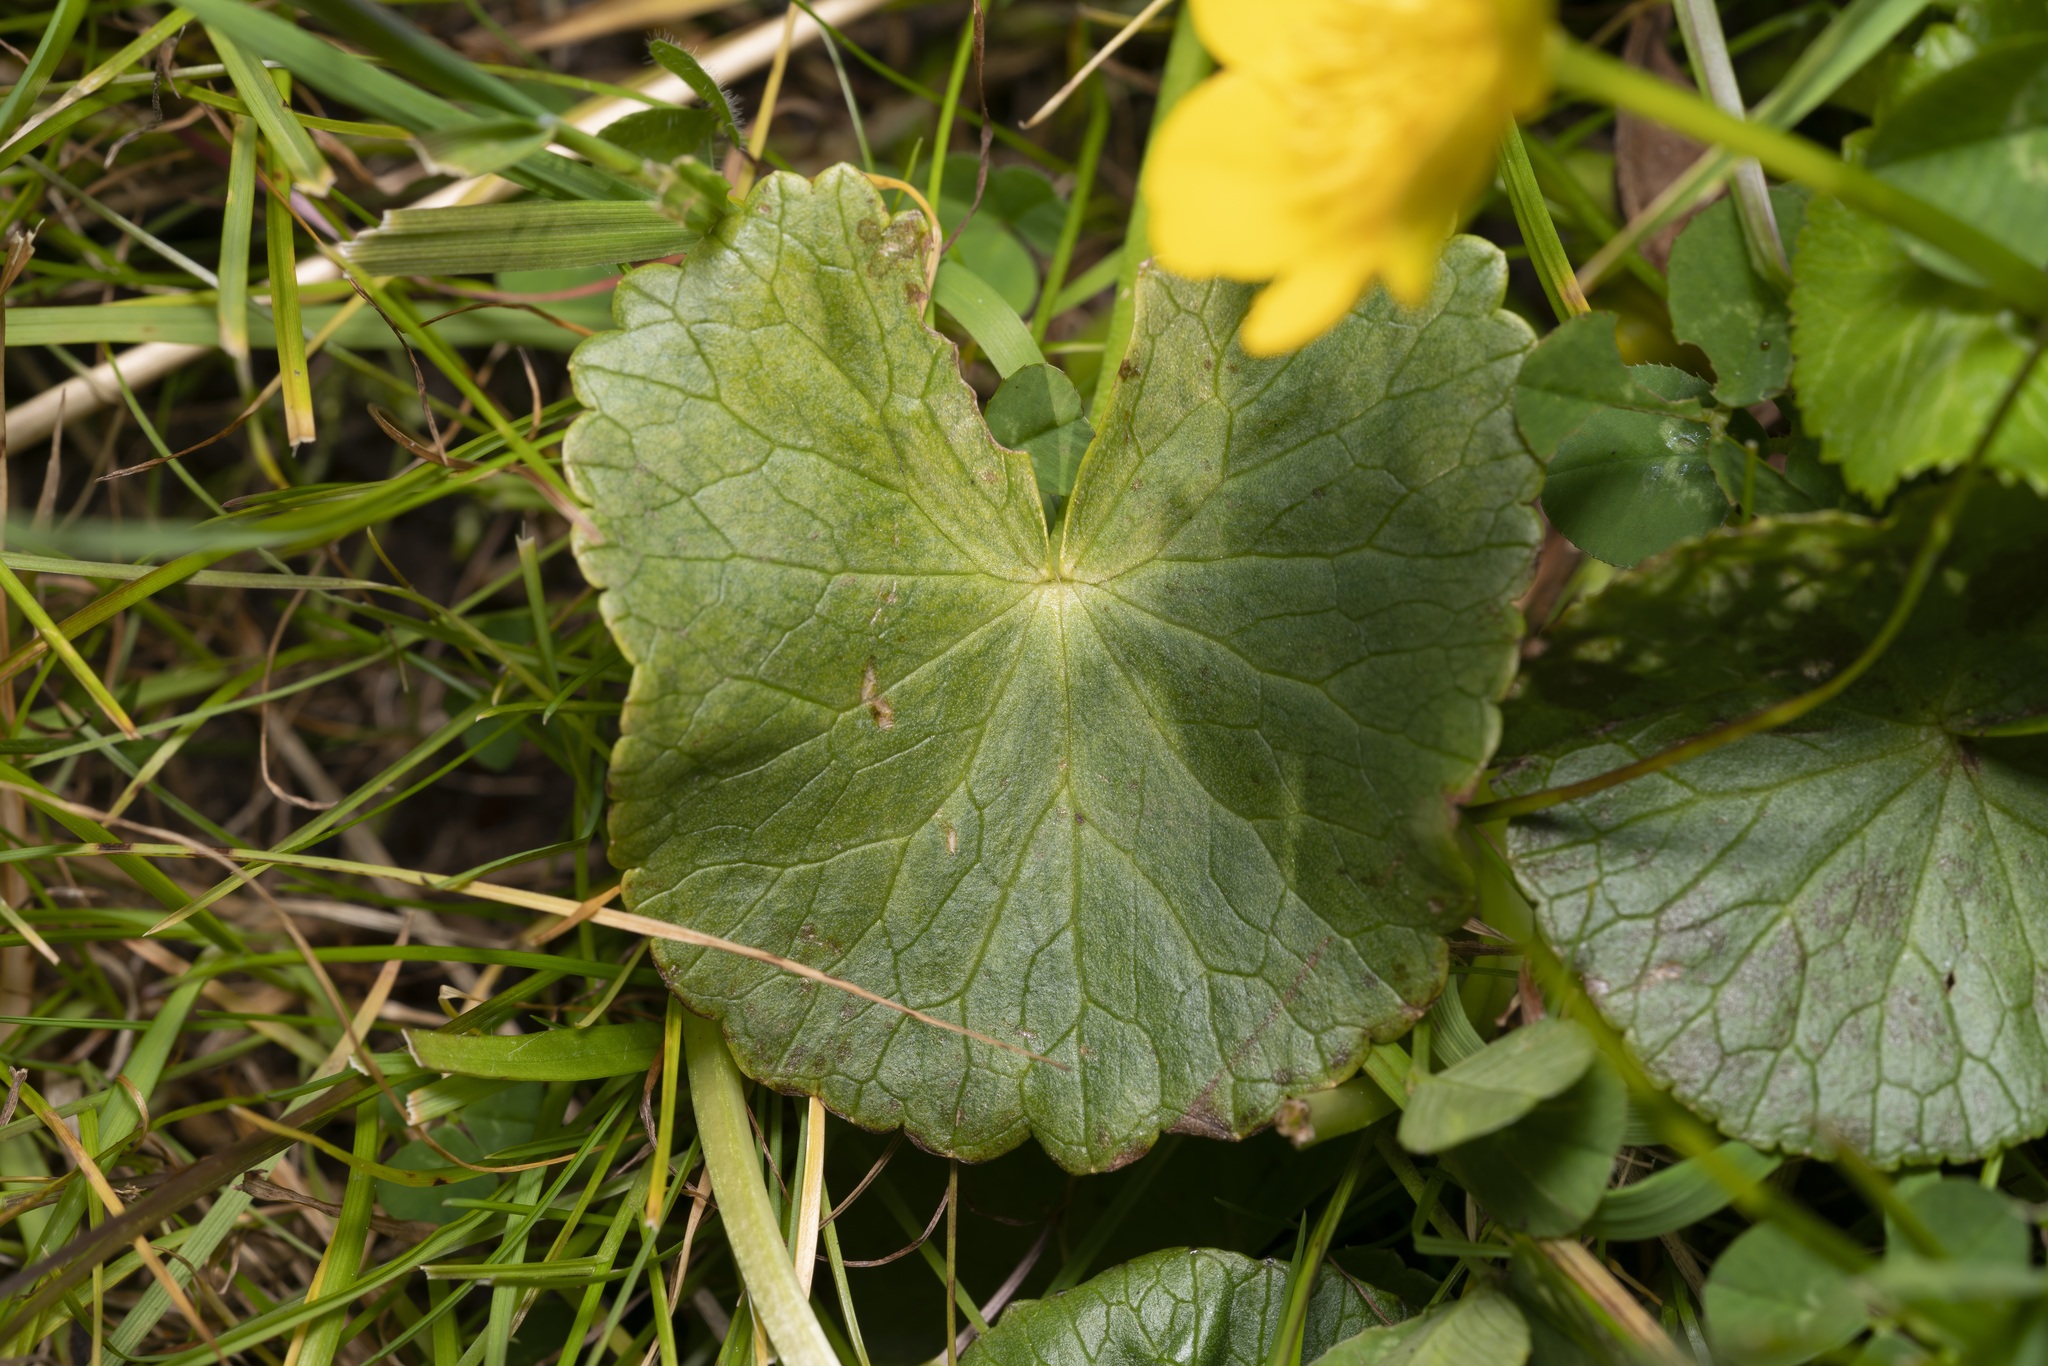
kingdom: Plantae
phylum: Tracheophyta
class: Magnoliopsida
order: Ranunculales
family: Ranunculaceae
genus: Caltha
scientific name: Caltha palustris
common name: Marsh marigold
